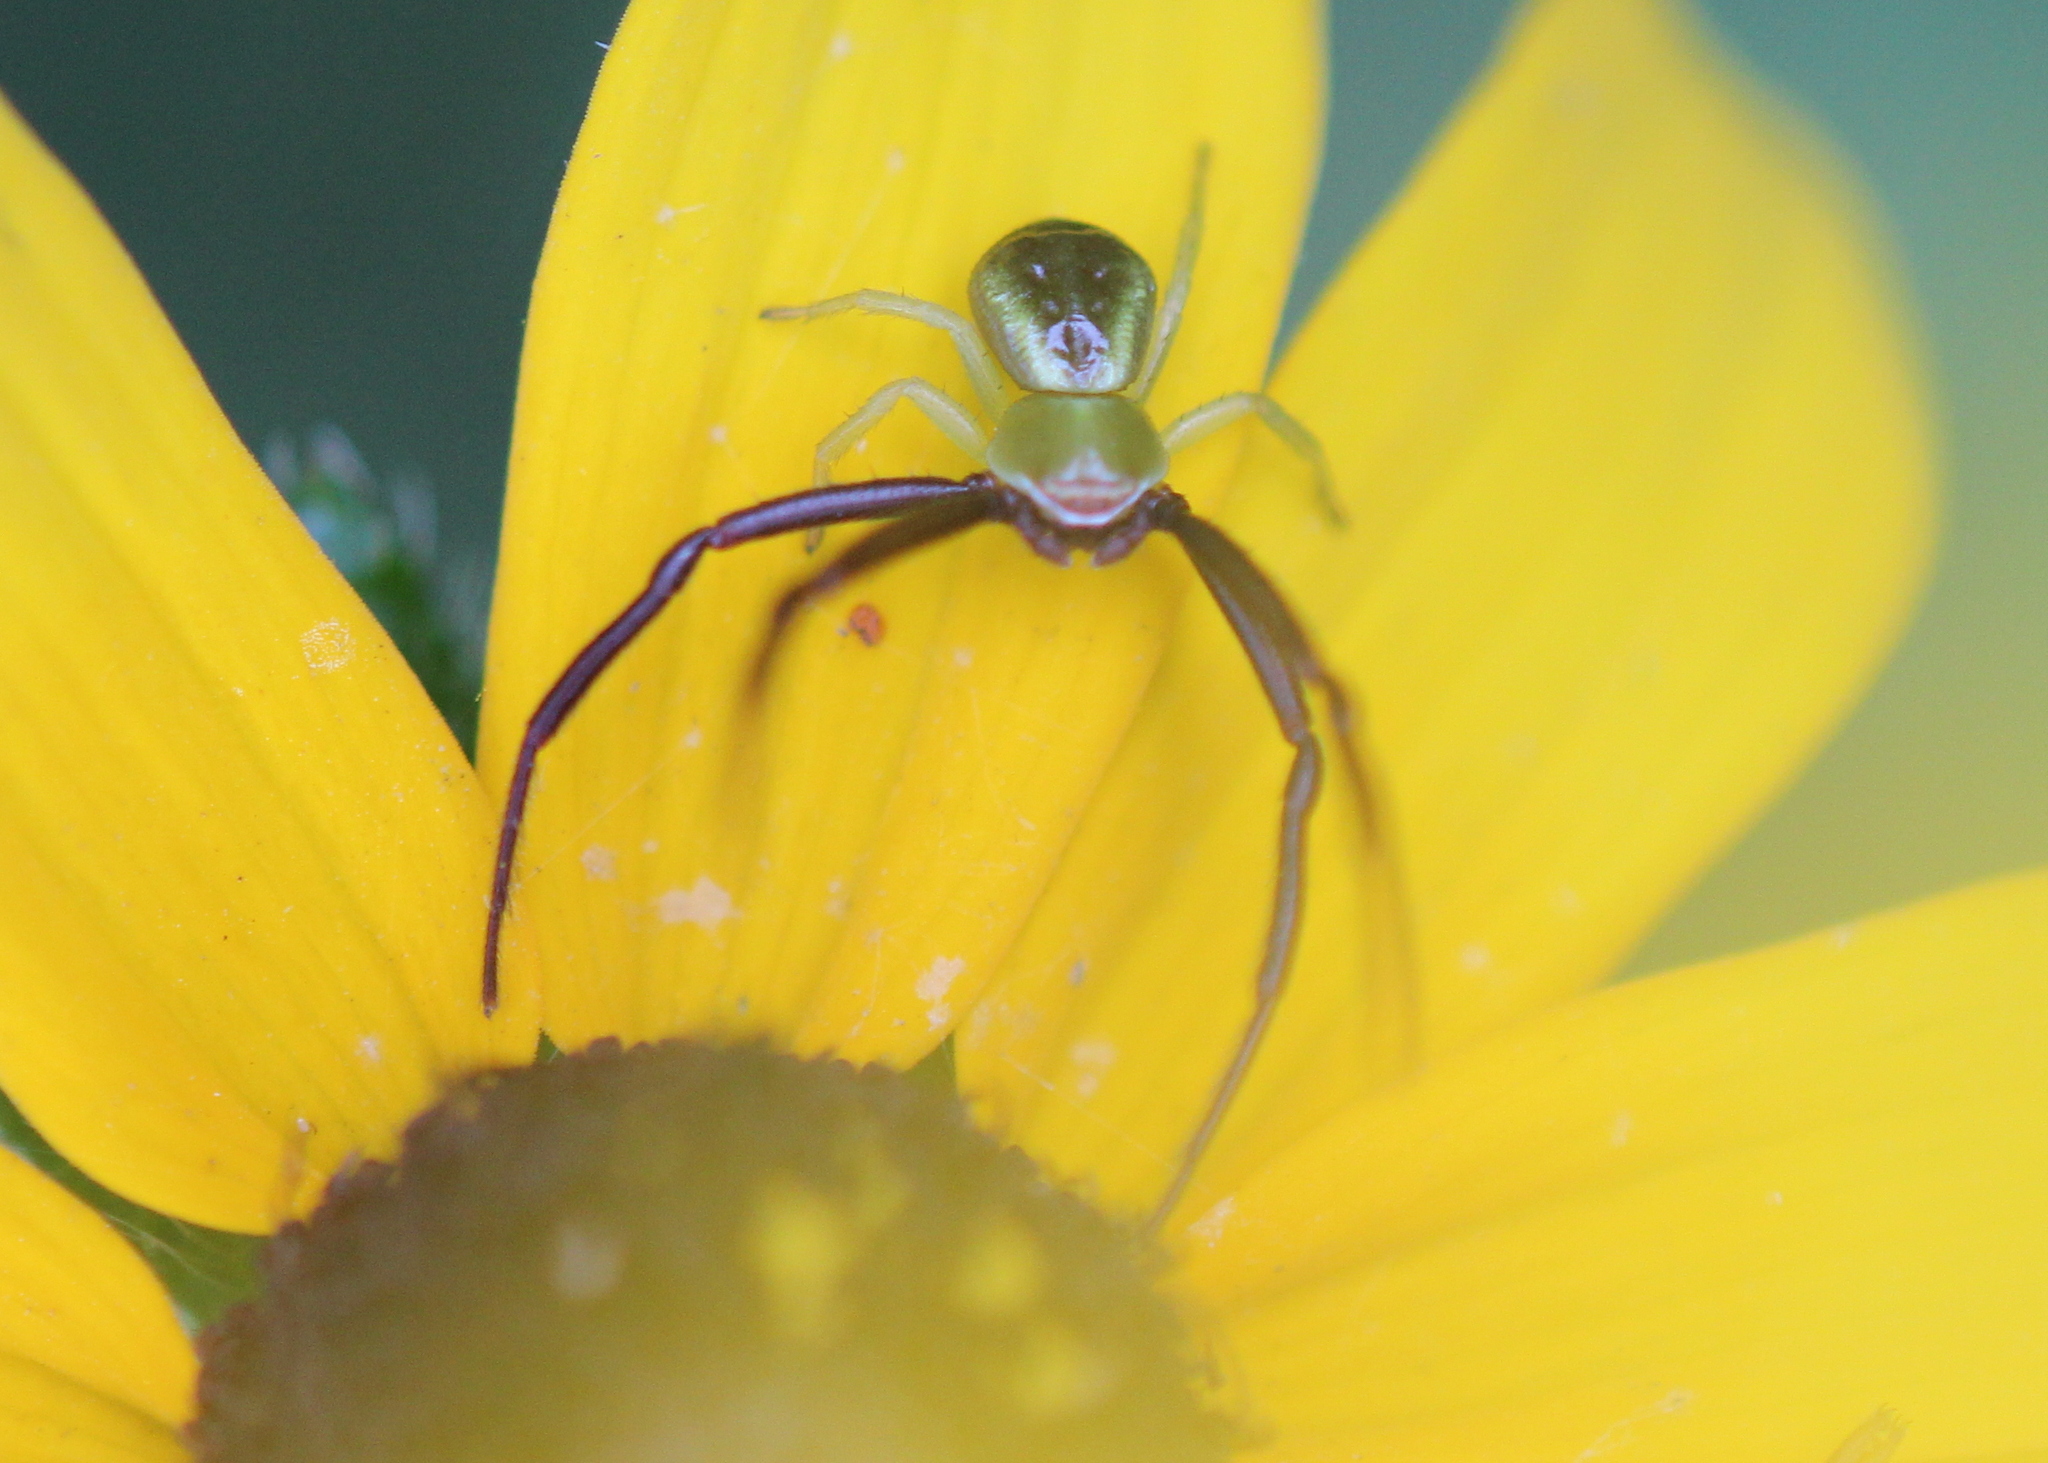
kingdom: Animalia
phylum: Arthropoda
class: Arachnida
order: Araneae
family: Thomisidae
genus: Misumenoides
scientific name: Misumenoides formosipes
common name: White-banded crab spider
